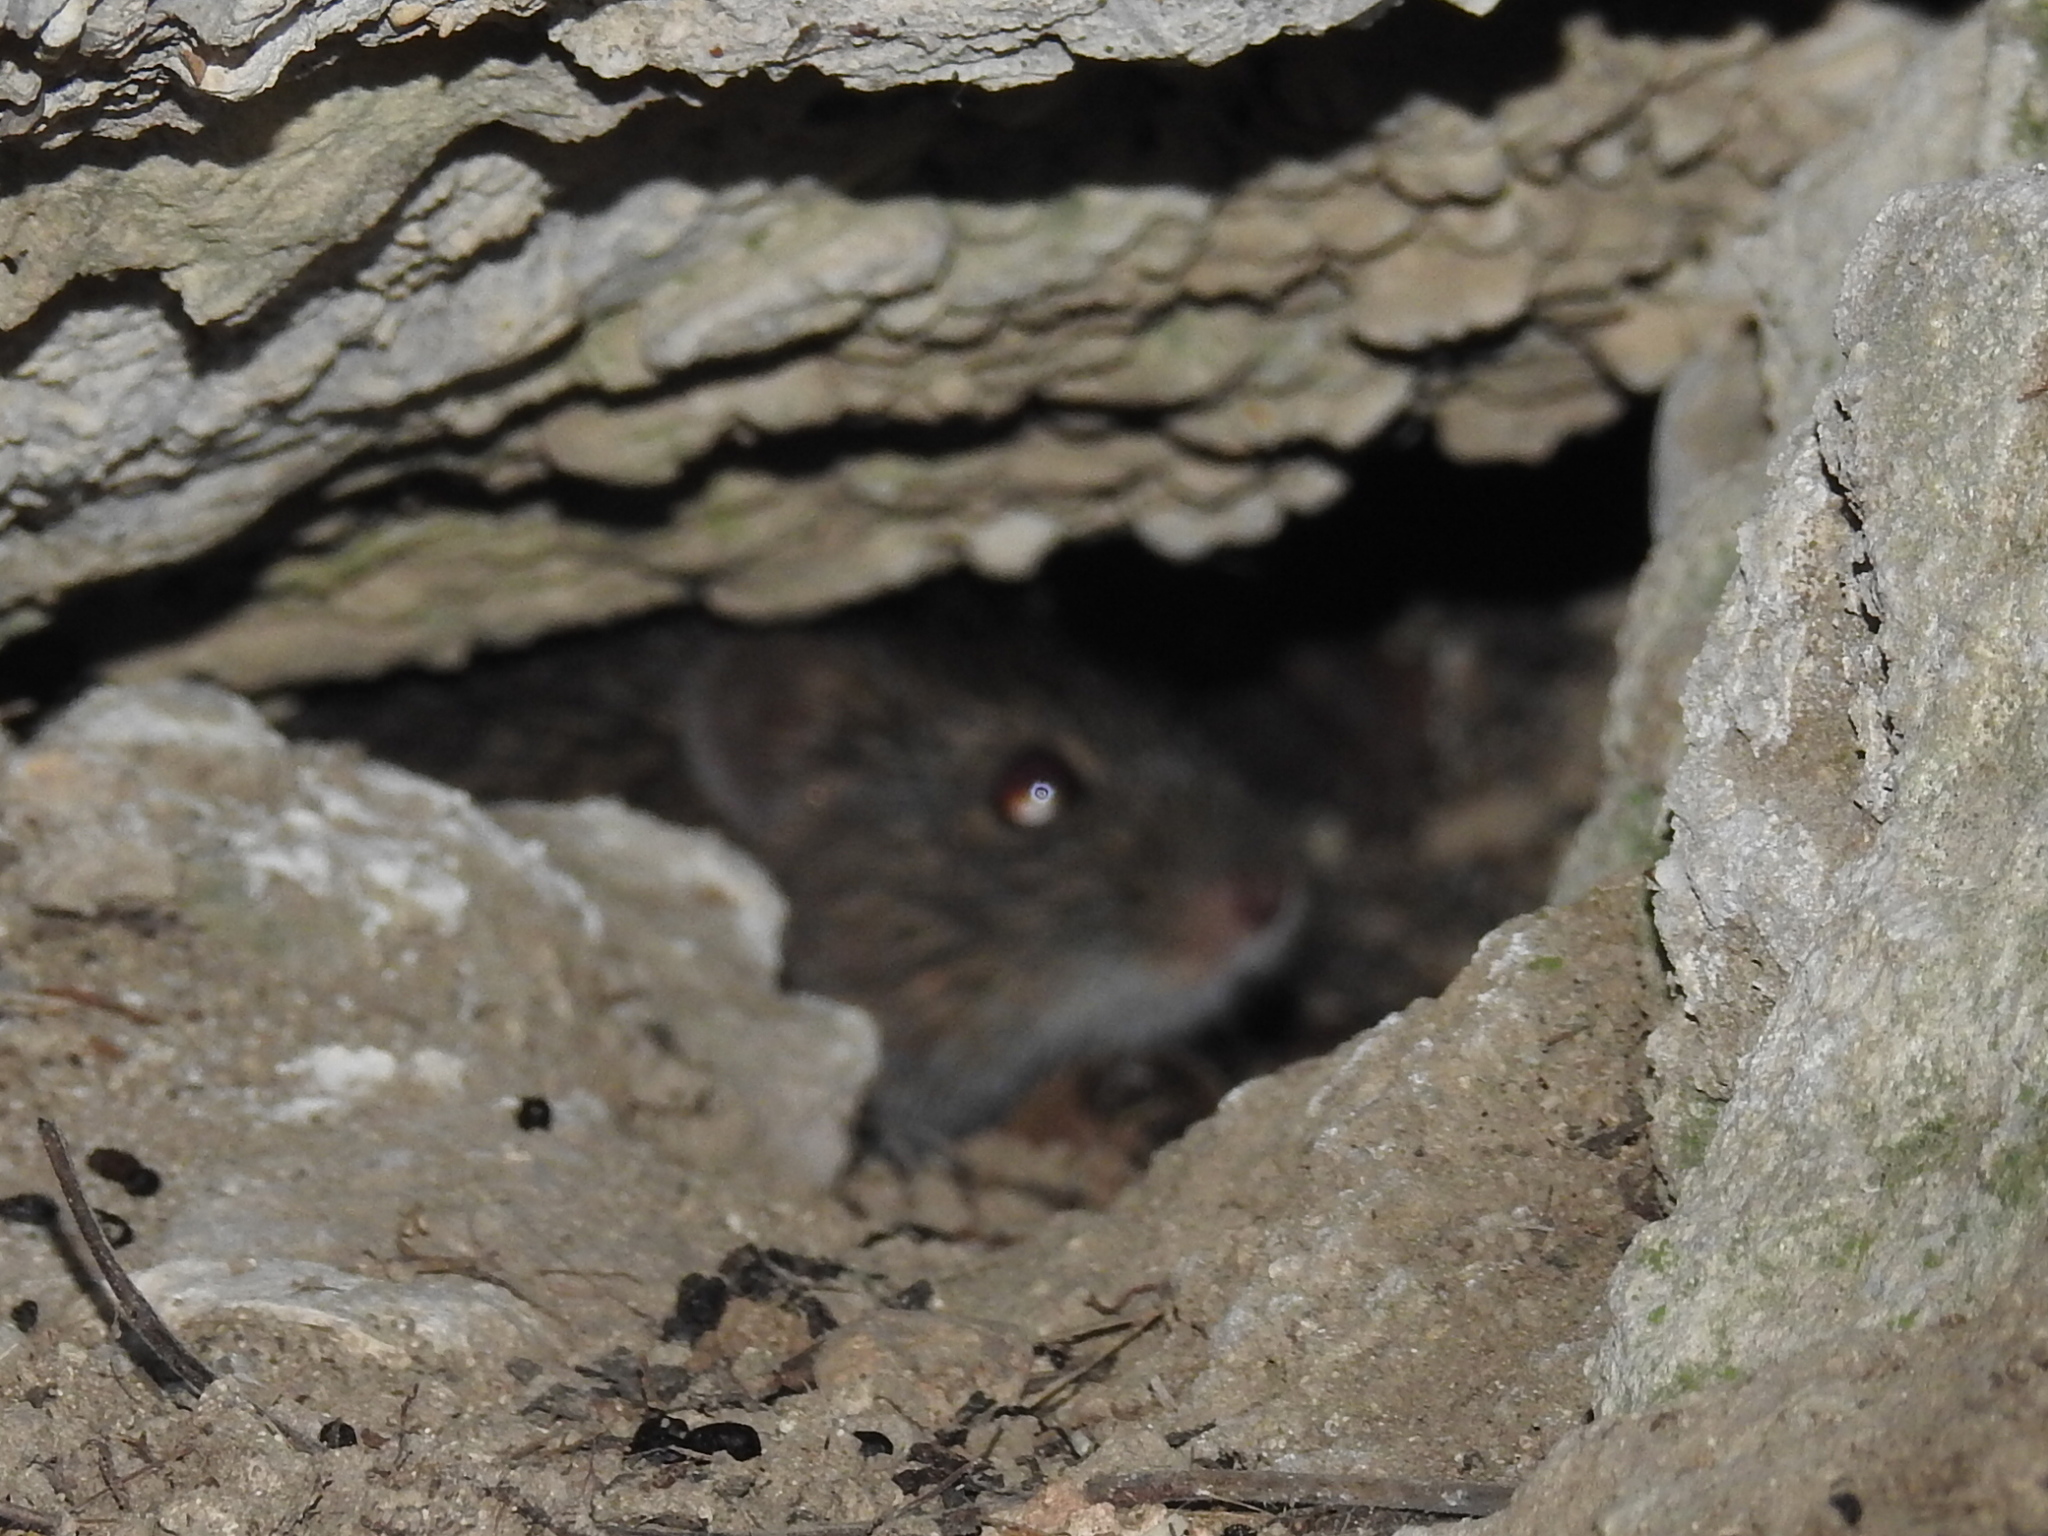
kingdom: Animalia
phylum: Chordata
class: Mammalia
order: Rodentia
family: Cricetidae
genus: Sigmodon
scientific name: Sigmodon hispidus
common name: Hispid cotton rat
